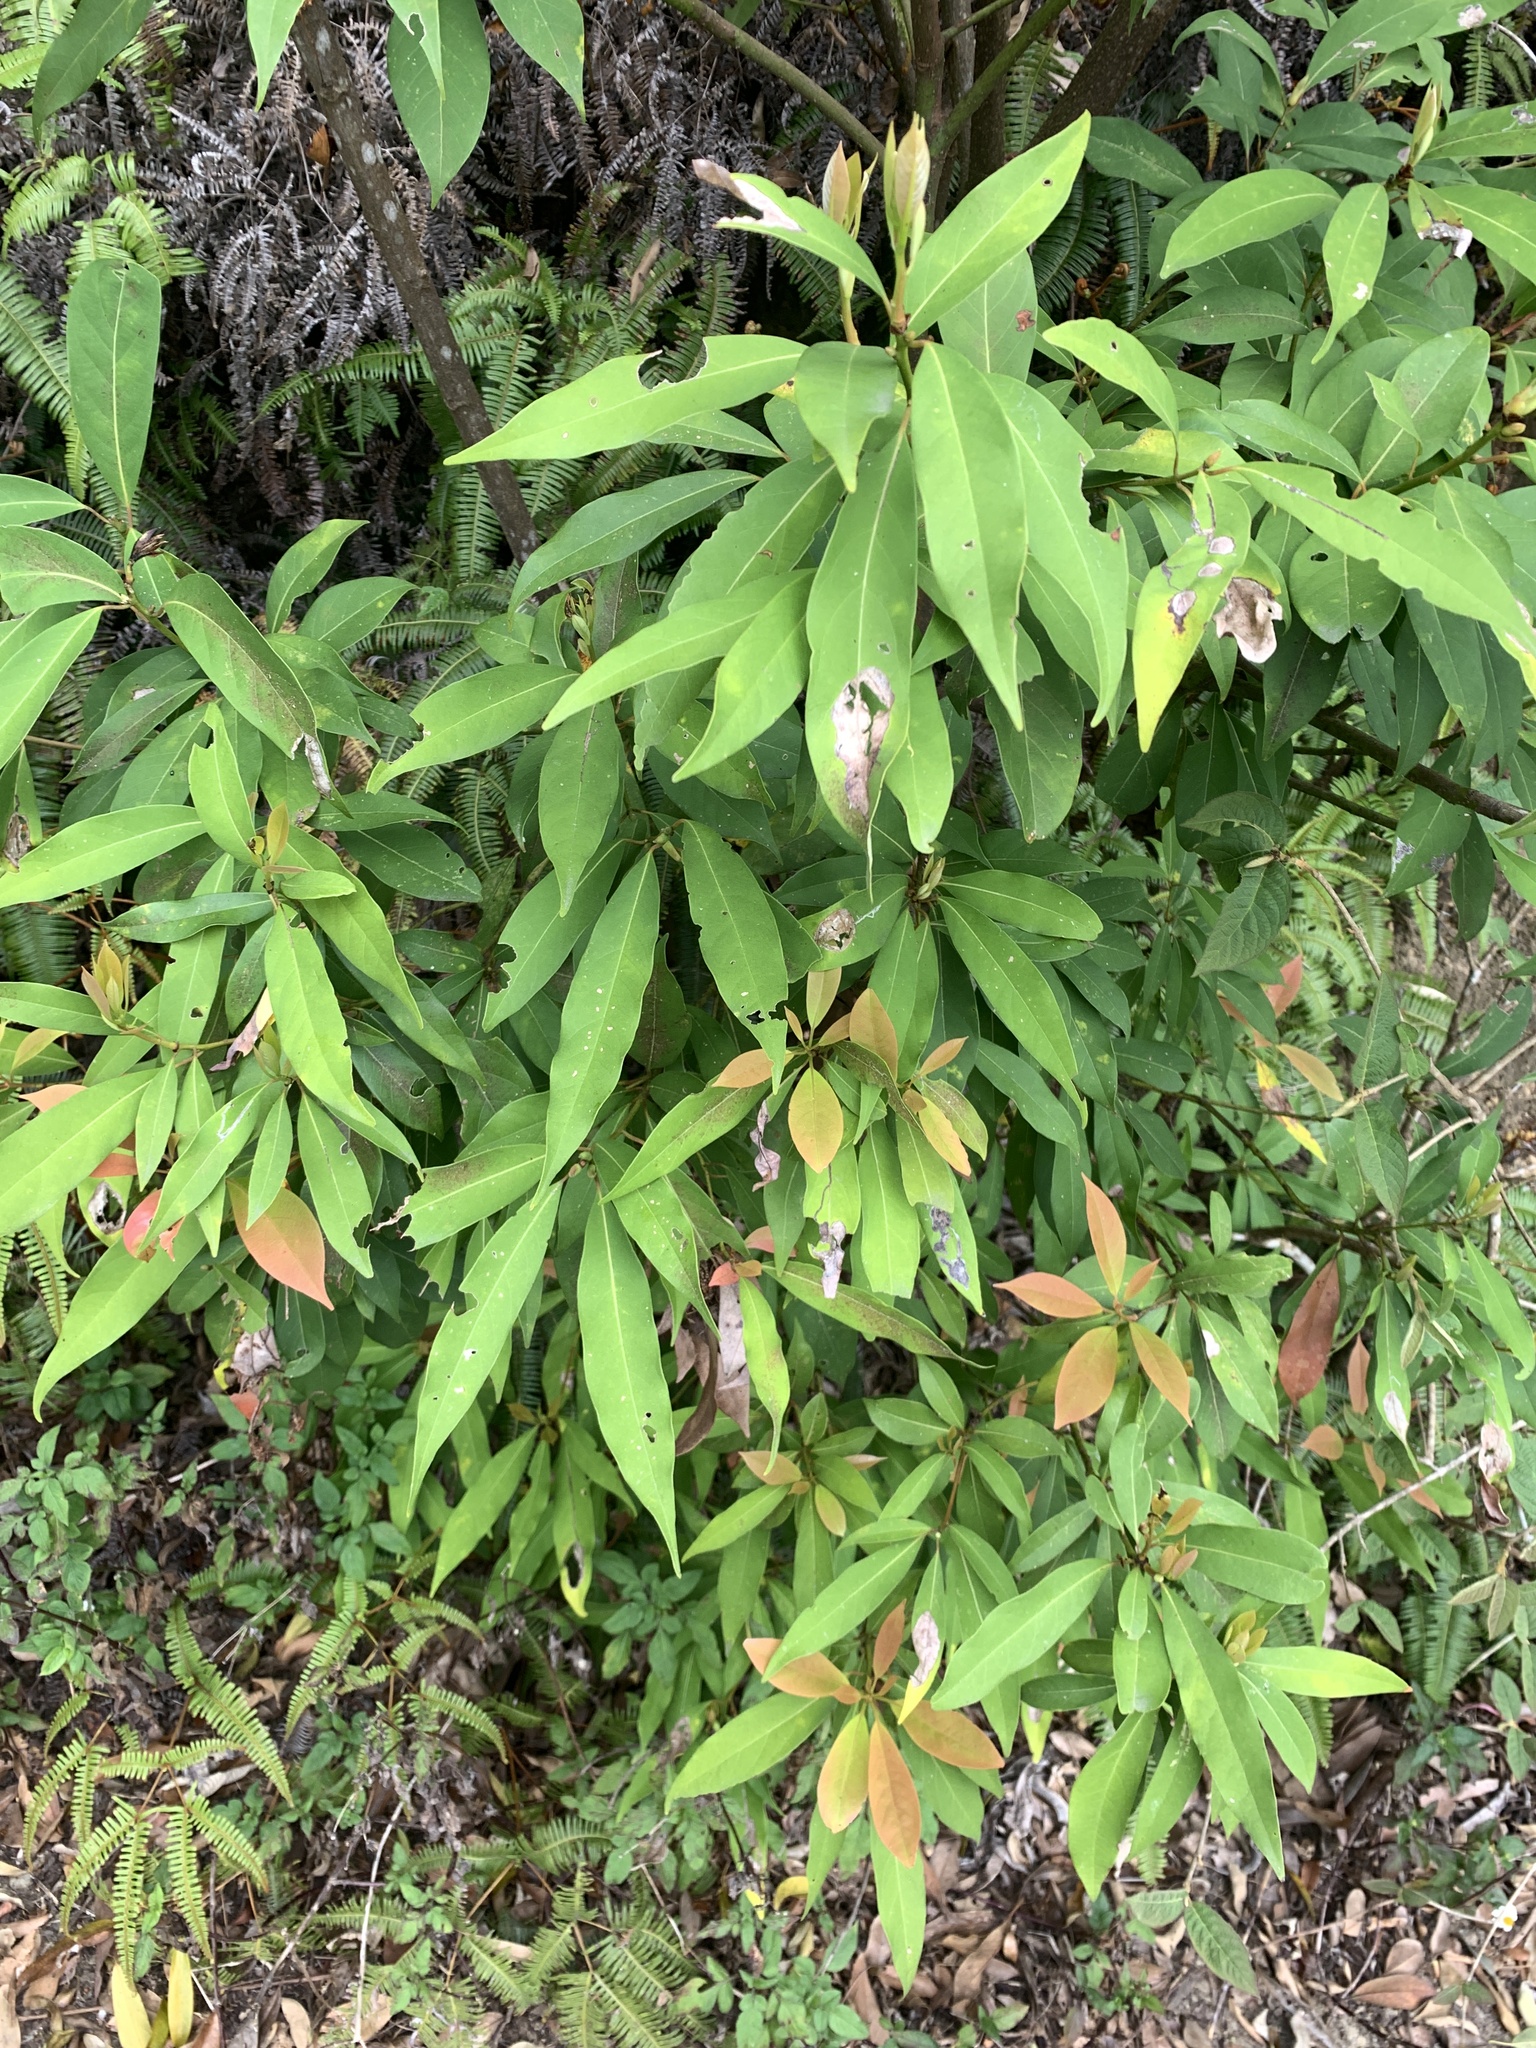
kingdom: Plantae
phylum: Tracheophyta
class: Magnoliopsida
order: Laurales
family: Lauraceae
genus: Machilus
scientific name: Machilus zuihoensis
